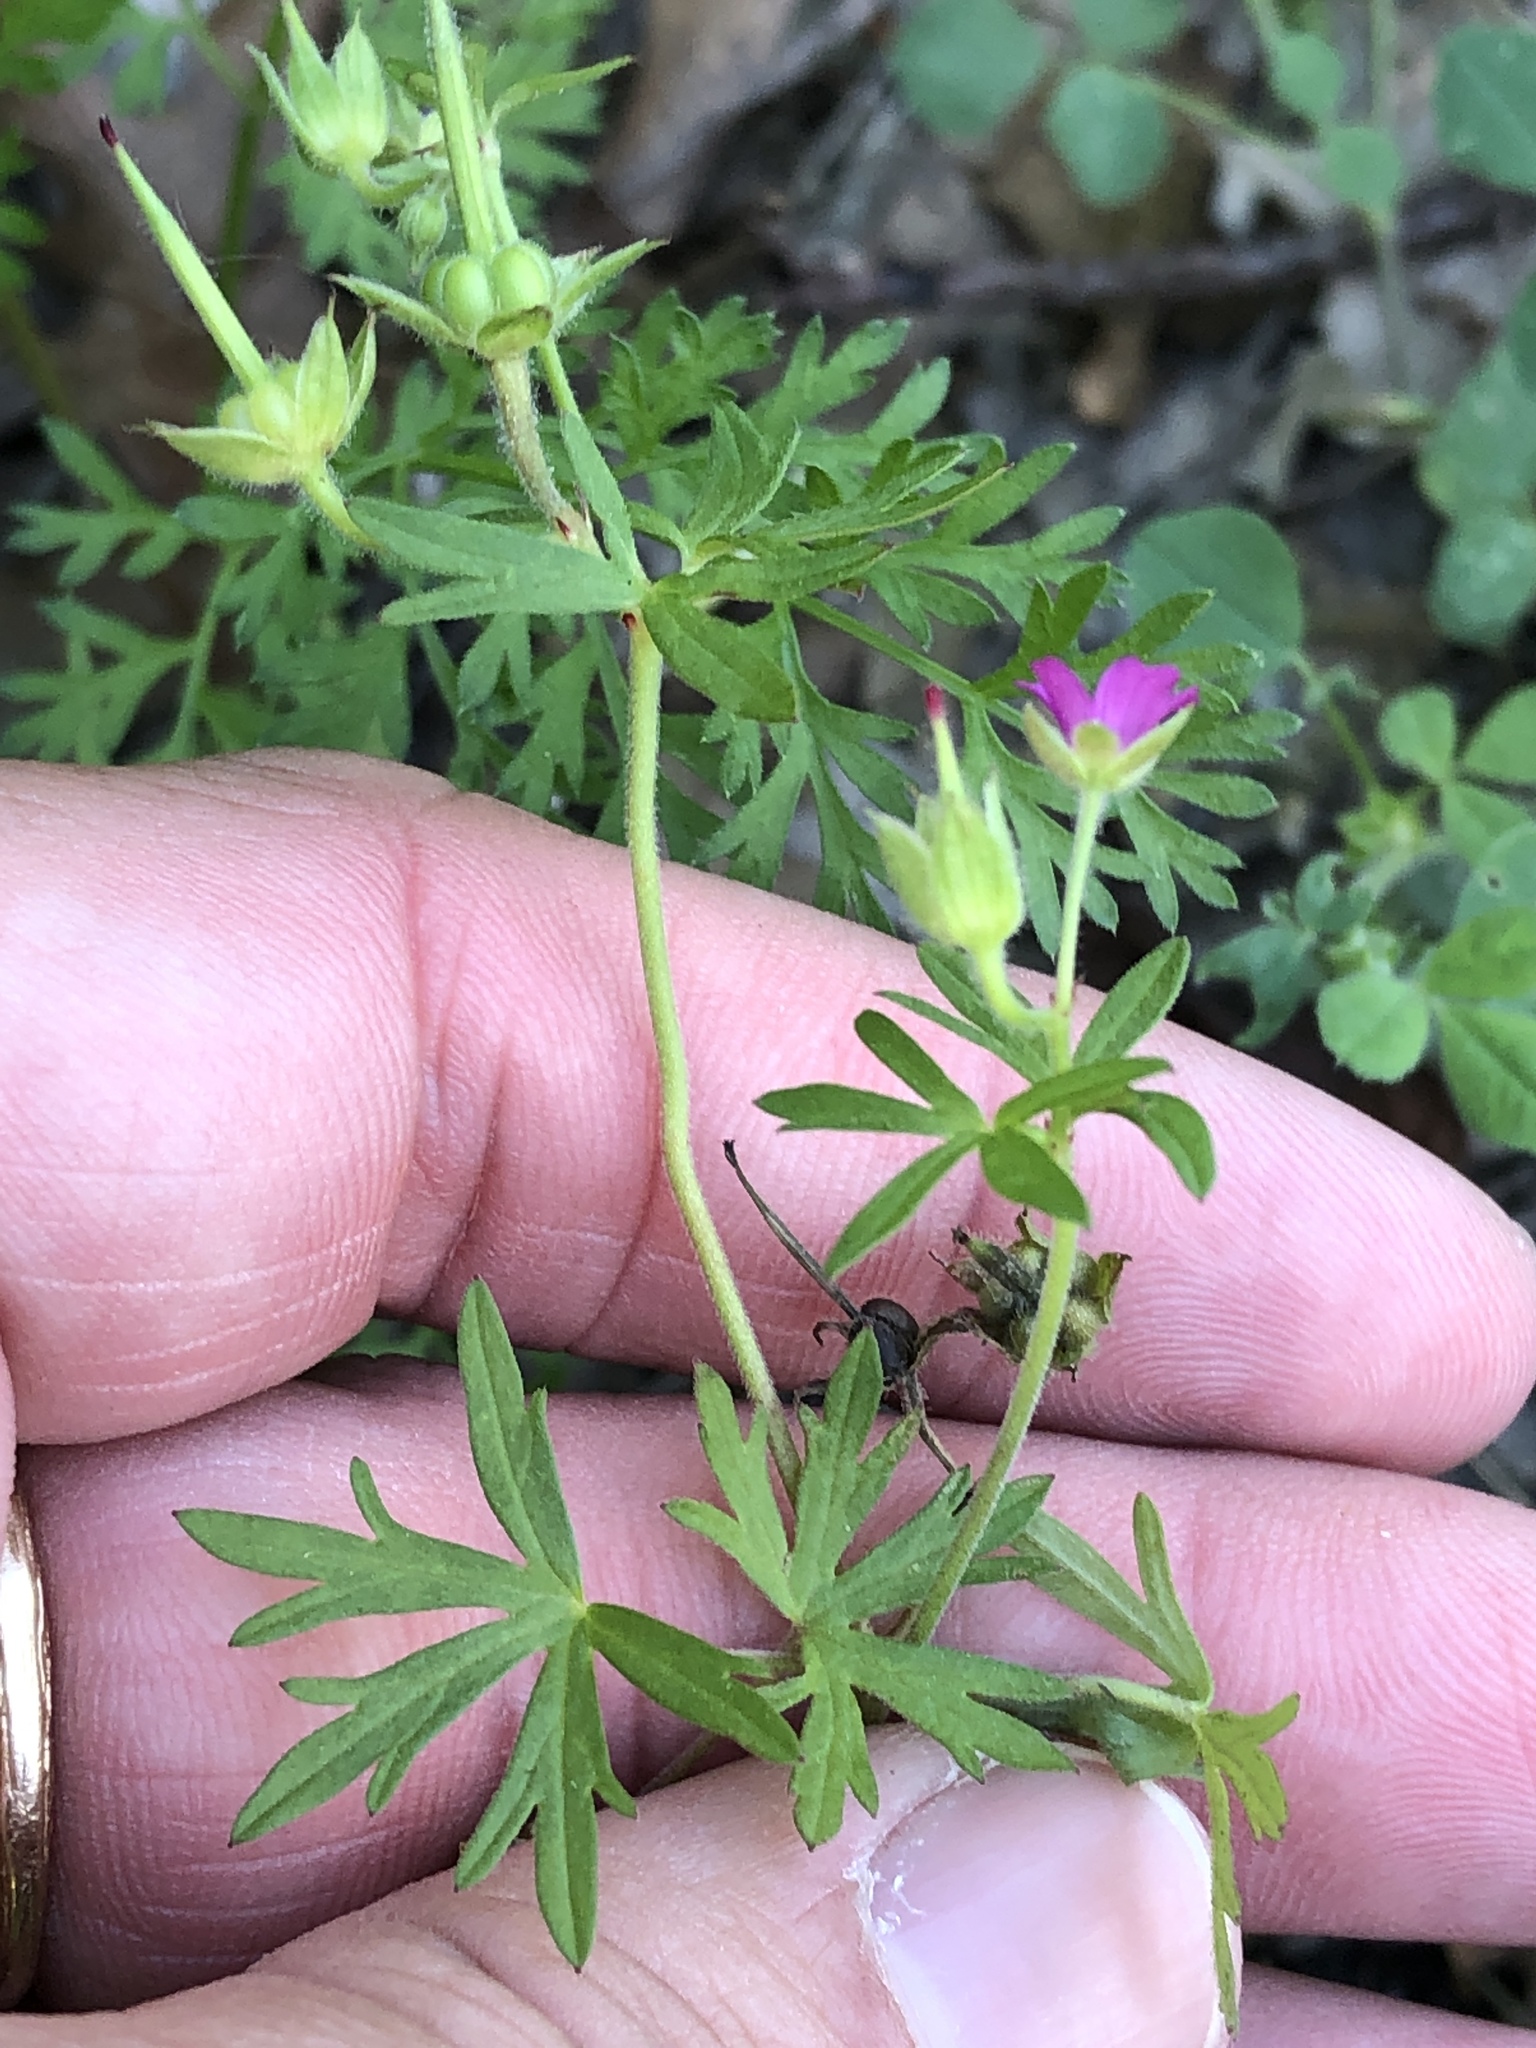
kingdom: Plantae
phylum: Tracheophyta
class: Magnoliopsida
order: Geraniales
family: Geraniaceae
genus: Geranium
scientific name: Geranium dissectum
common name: Cut-leaved crane's-bill
